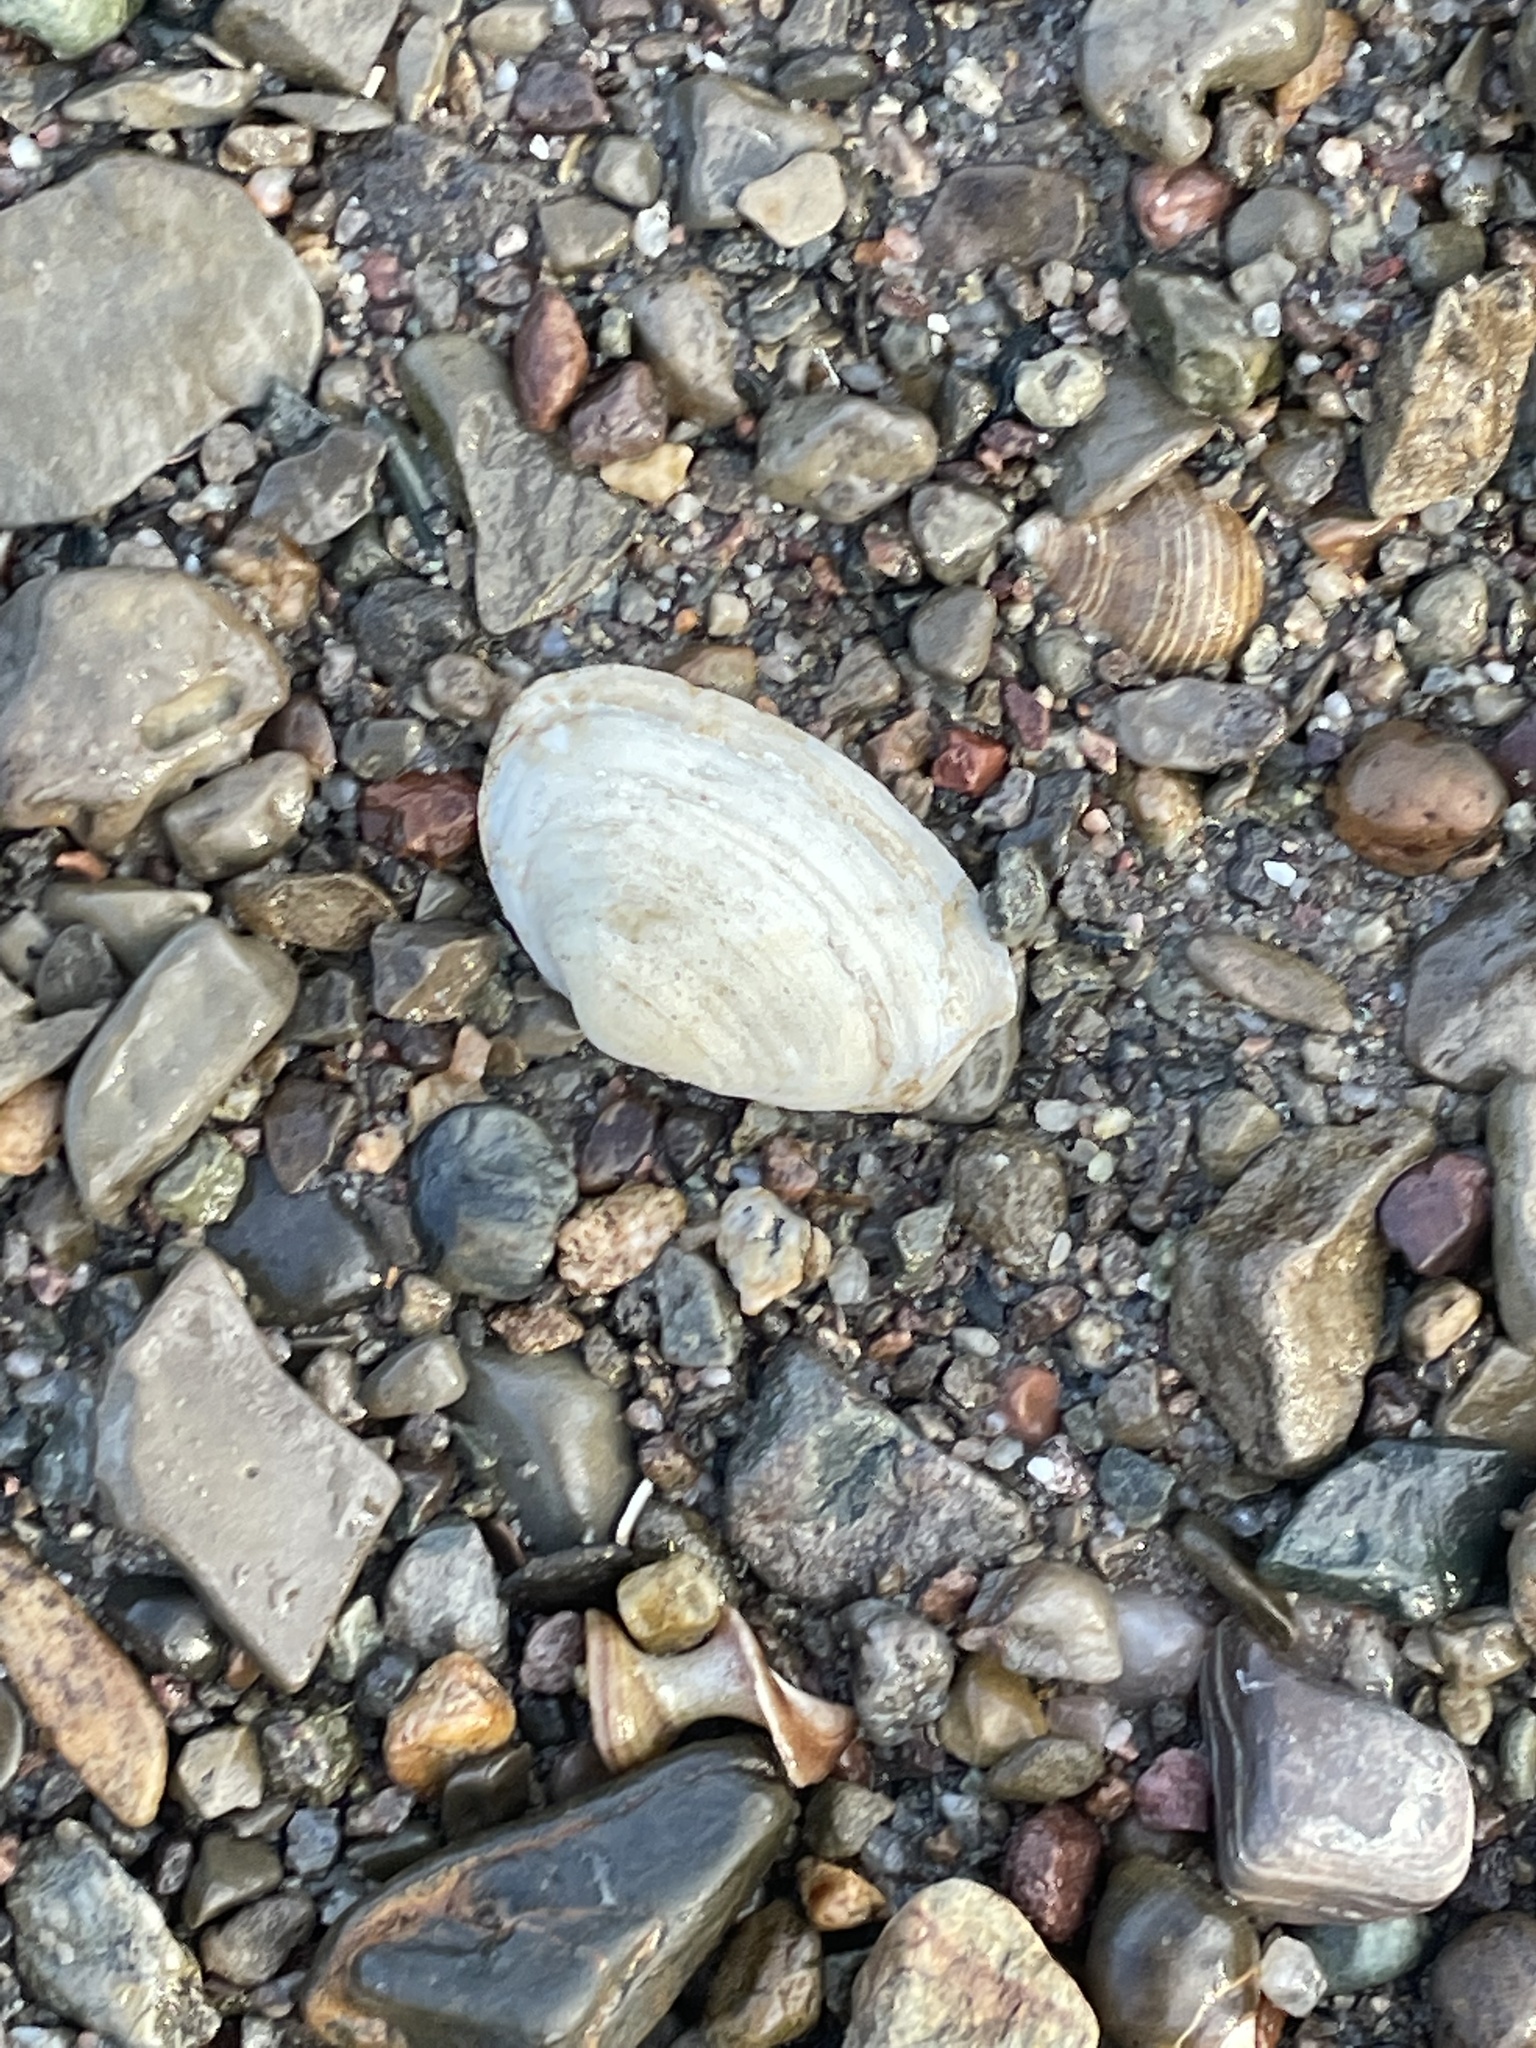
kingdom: Animalia
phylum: Mollusca
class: Bivalvia
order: Myida
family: Myidae
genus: Mya
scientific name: Mya arenaria
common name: Soft-shelled clam
